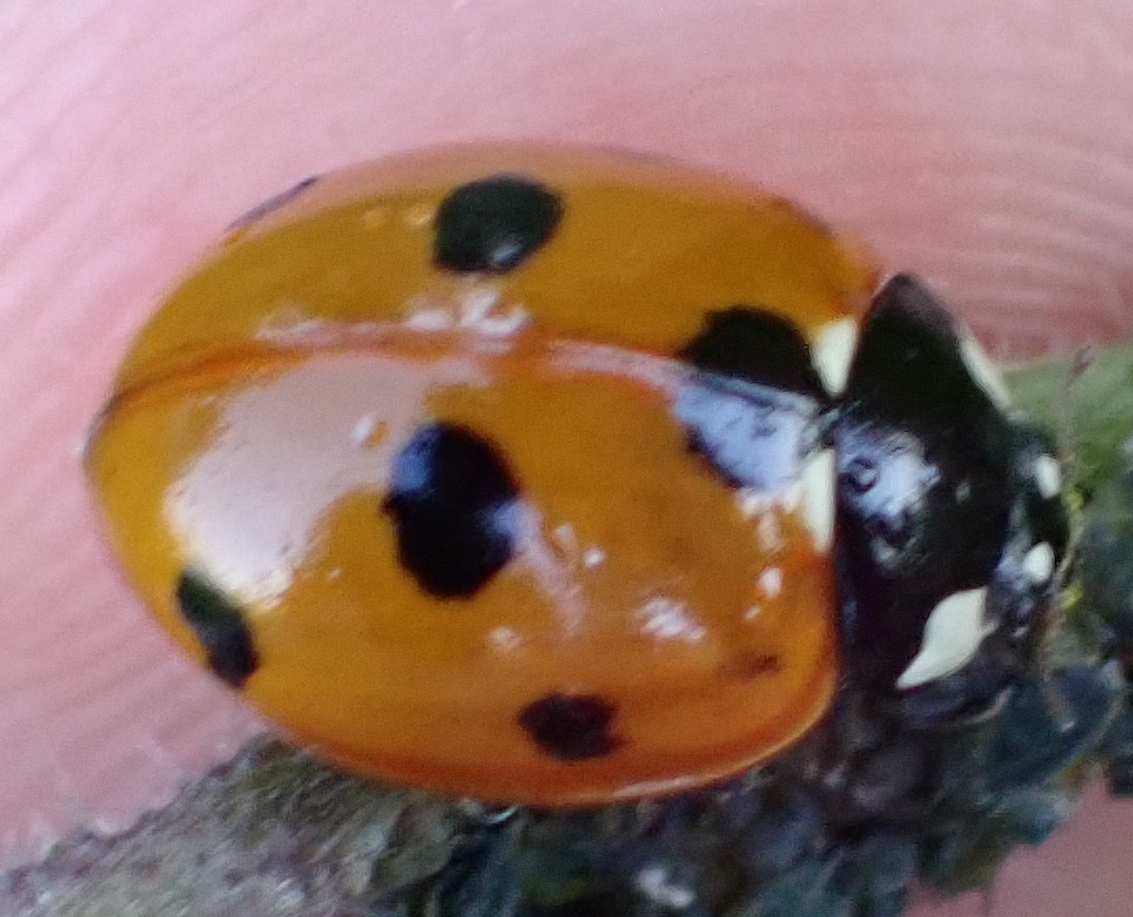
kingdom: Animalia
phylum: Arthropoda
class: Insecta
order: Coleoptera
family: Coccinellidae
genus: Coccinella
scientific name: Coccinella septempunctata
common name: Sevenspotted lady beetle
